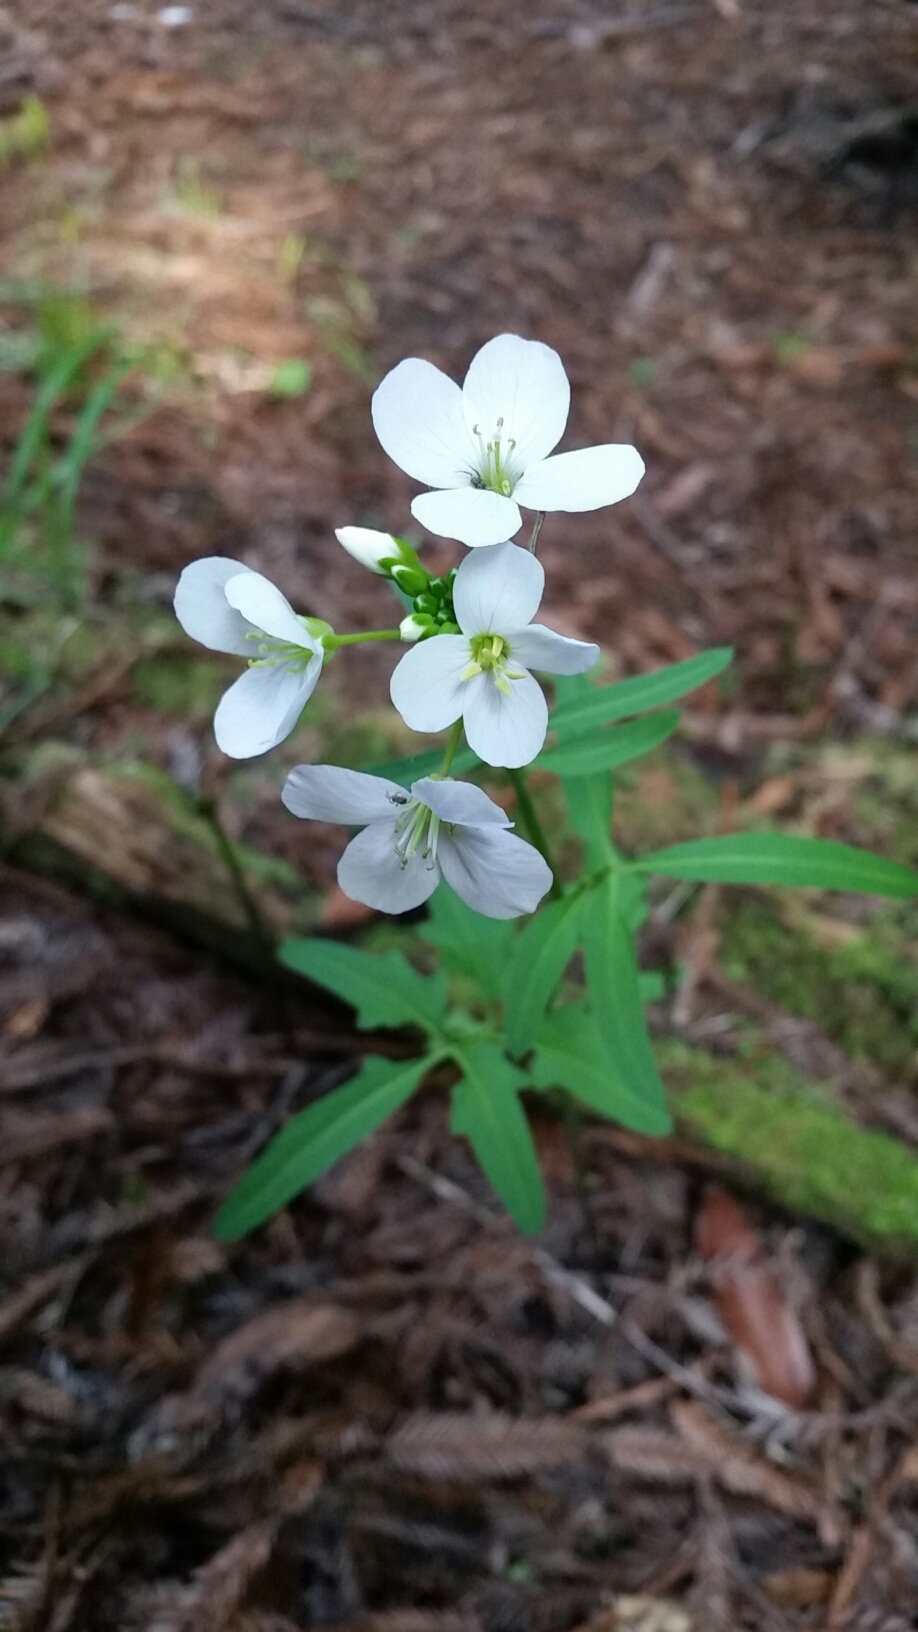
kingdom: Plantae
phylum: Tracheophyta
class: Magnoliopsida
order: Brassicales
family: Brassicaceae
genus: Cardamine
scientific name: Cardamine californica
